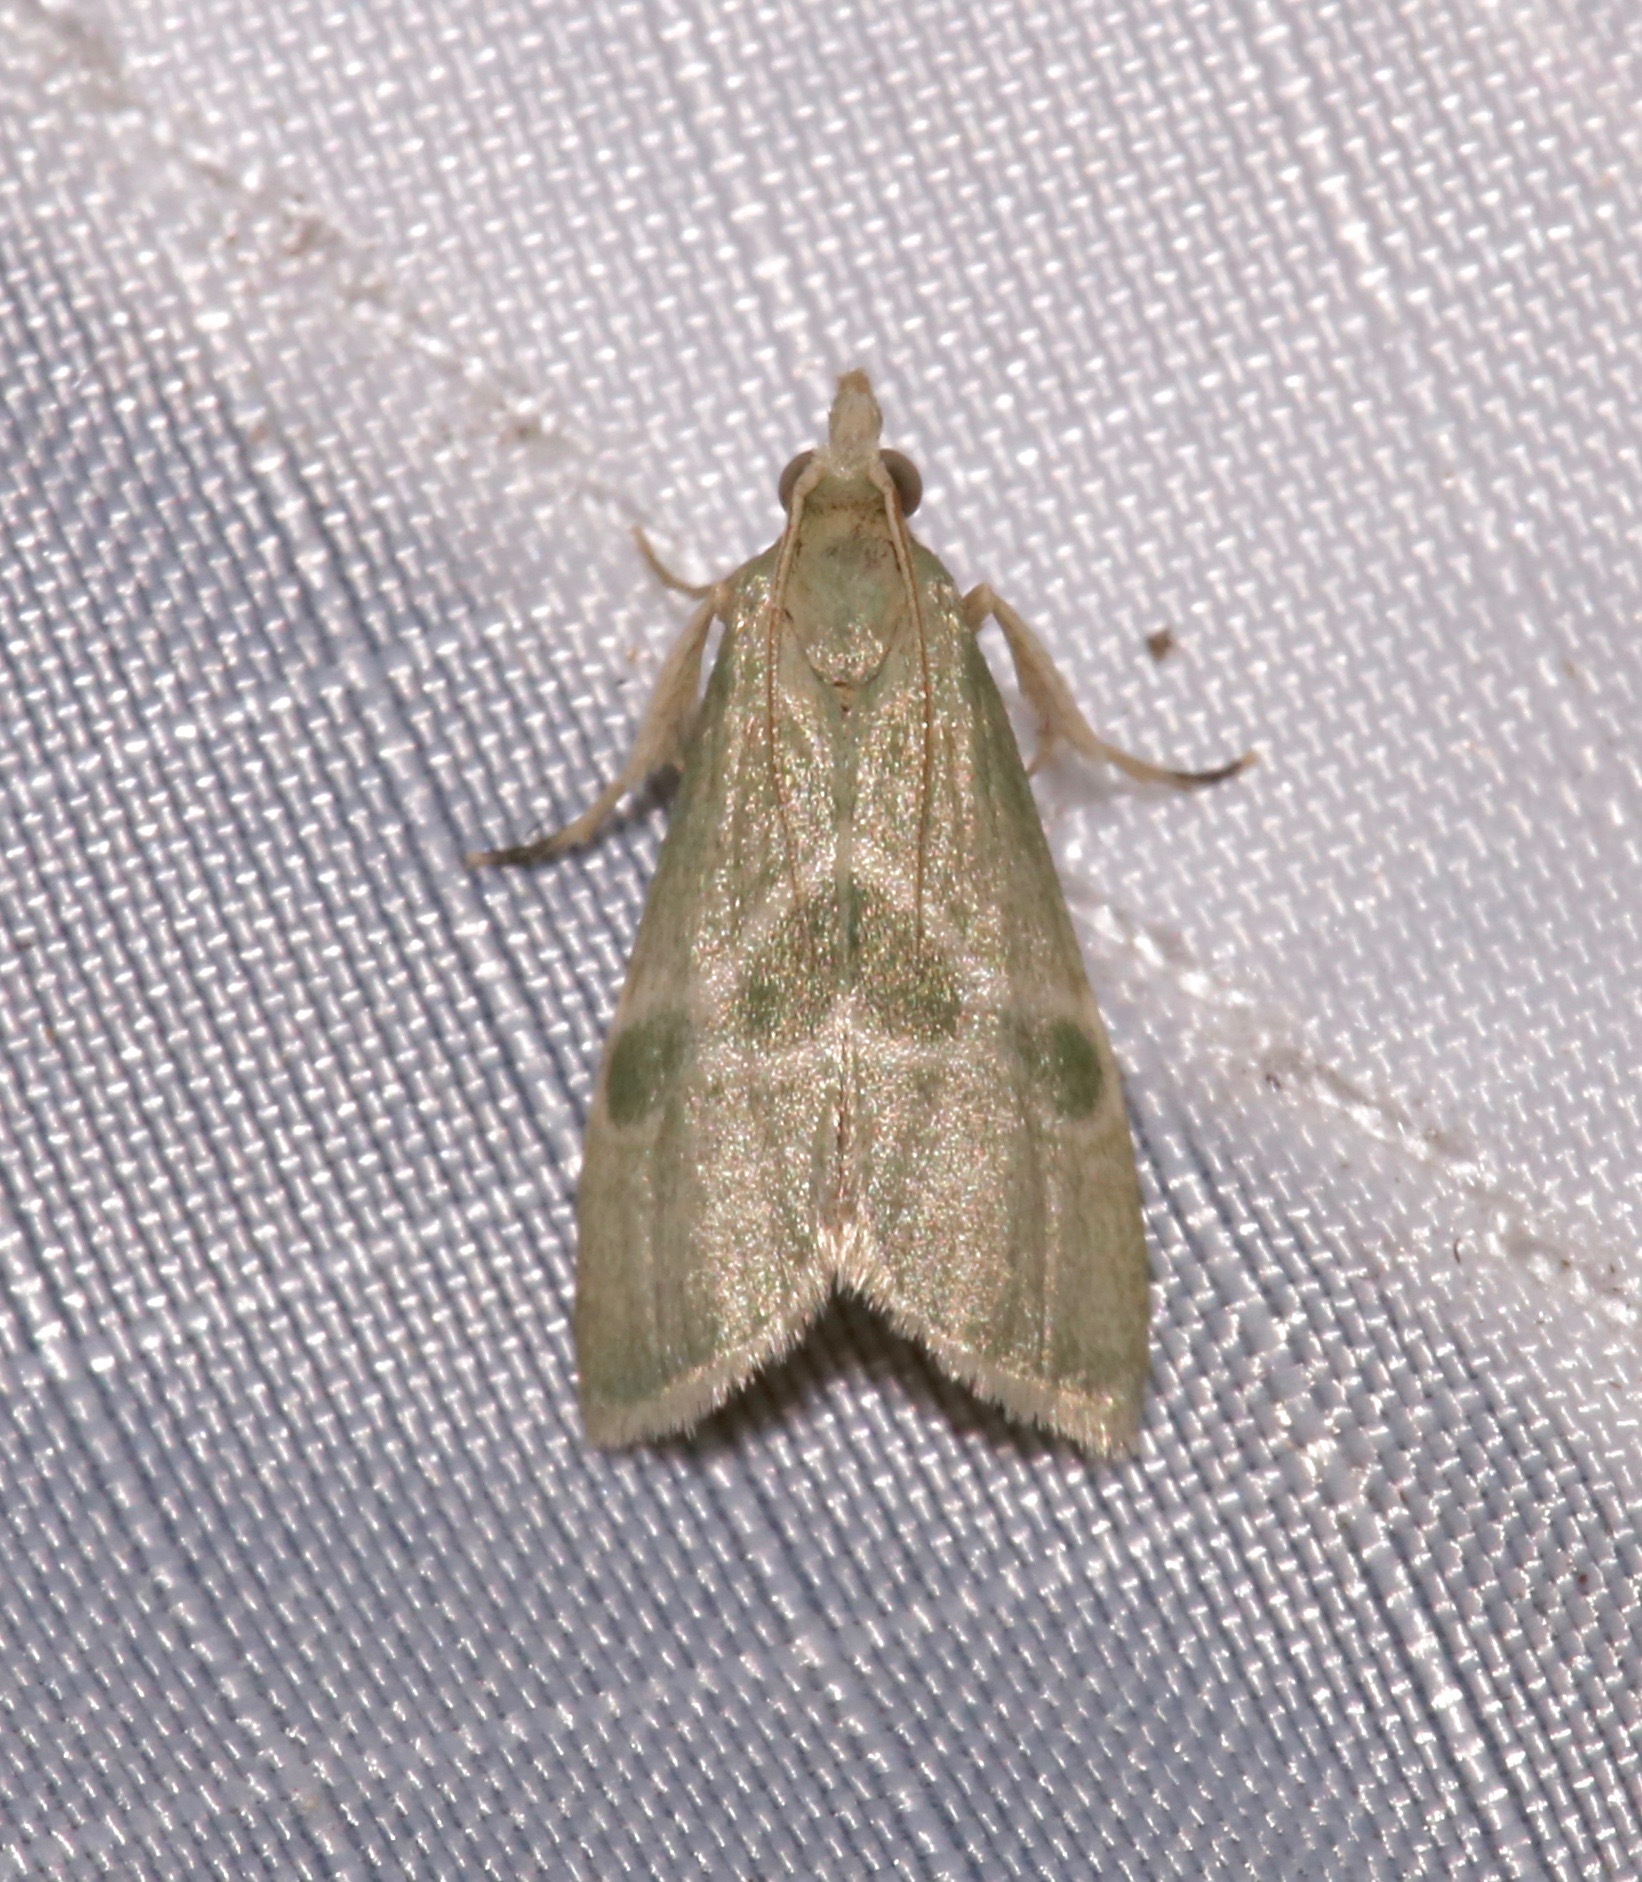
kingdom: Animalia
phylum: Arthropoda
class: Insecta
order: Lepidoptera
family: Pyralidae
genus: Anemosella
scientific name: Anemosella viridalis
